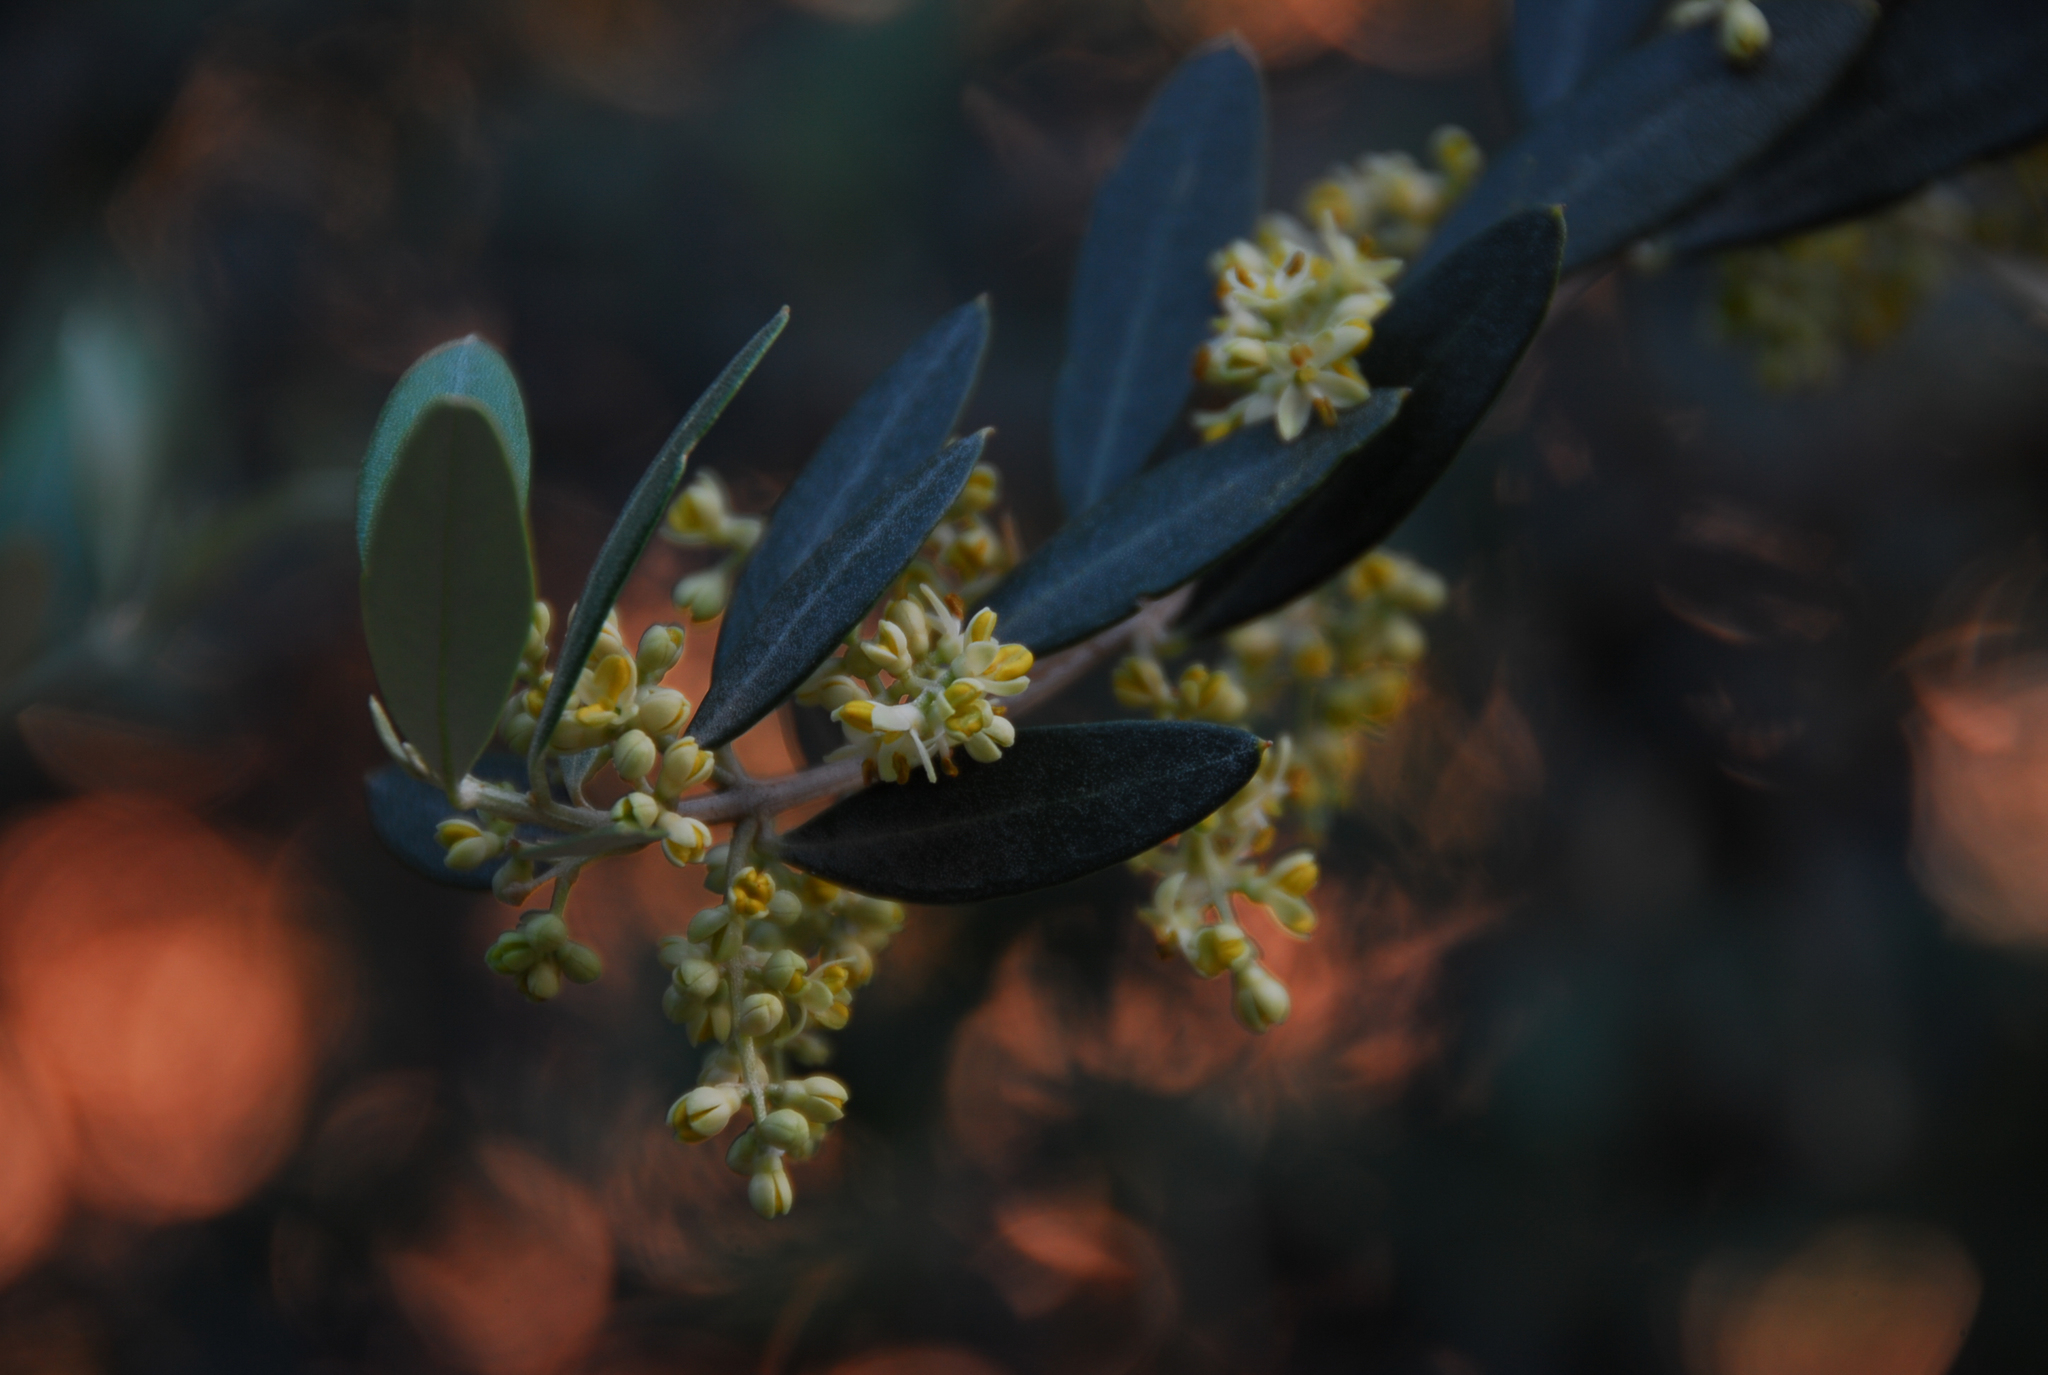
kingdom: Plantae
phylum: Tracheophyta
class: Magnoliopsida
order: Lamiales
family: Oleaceae
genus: Olea
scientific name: Olea europaea
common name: Olive
